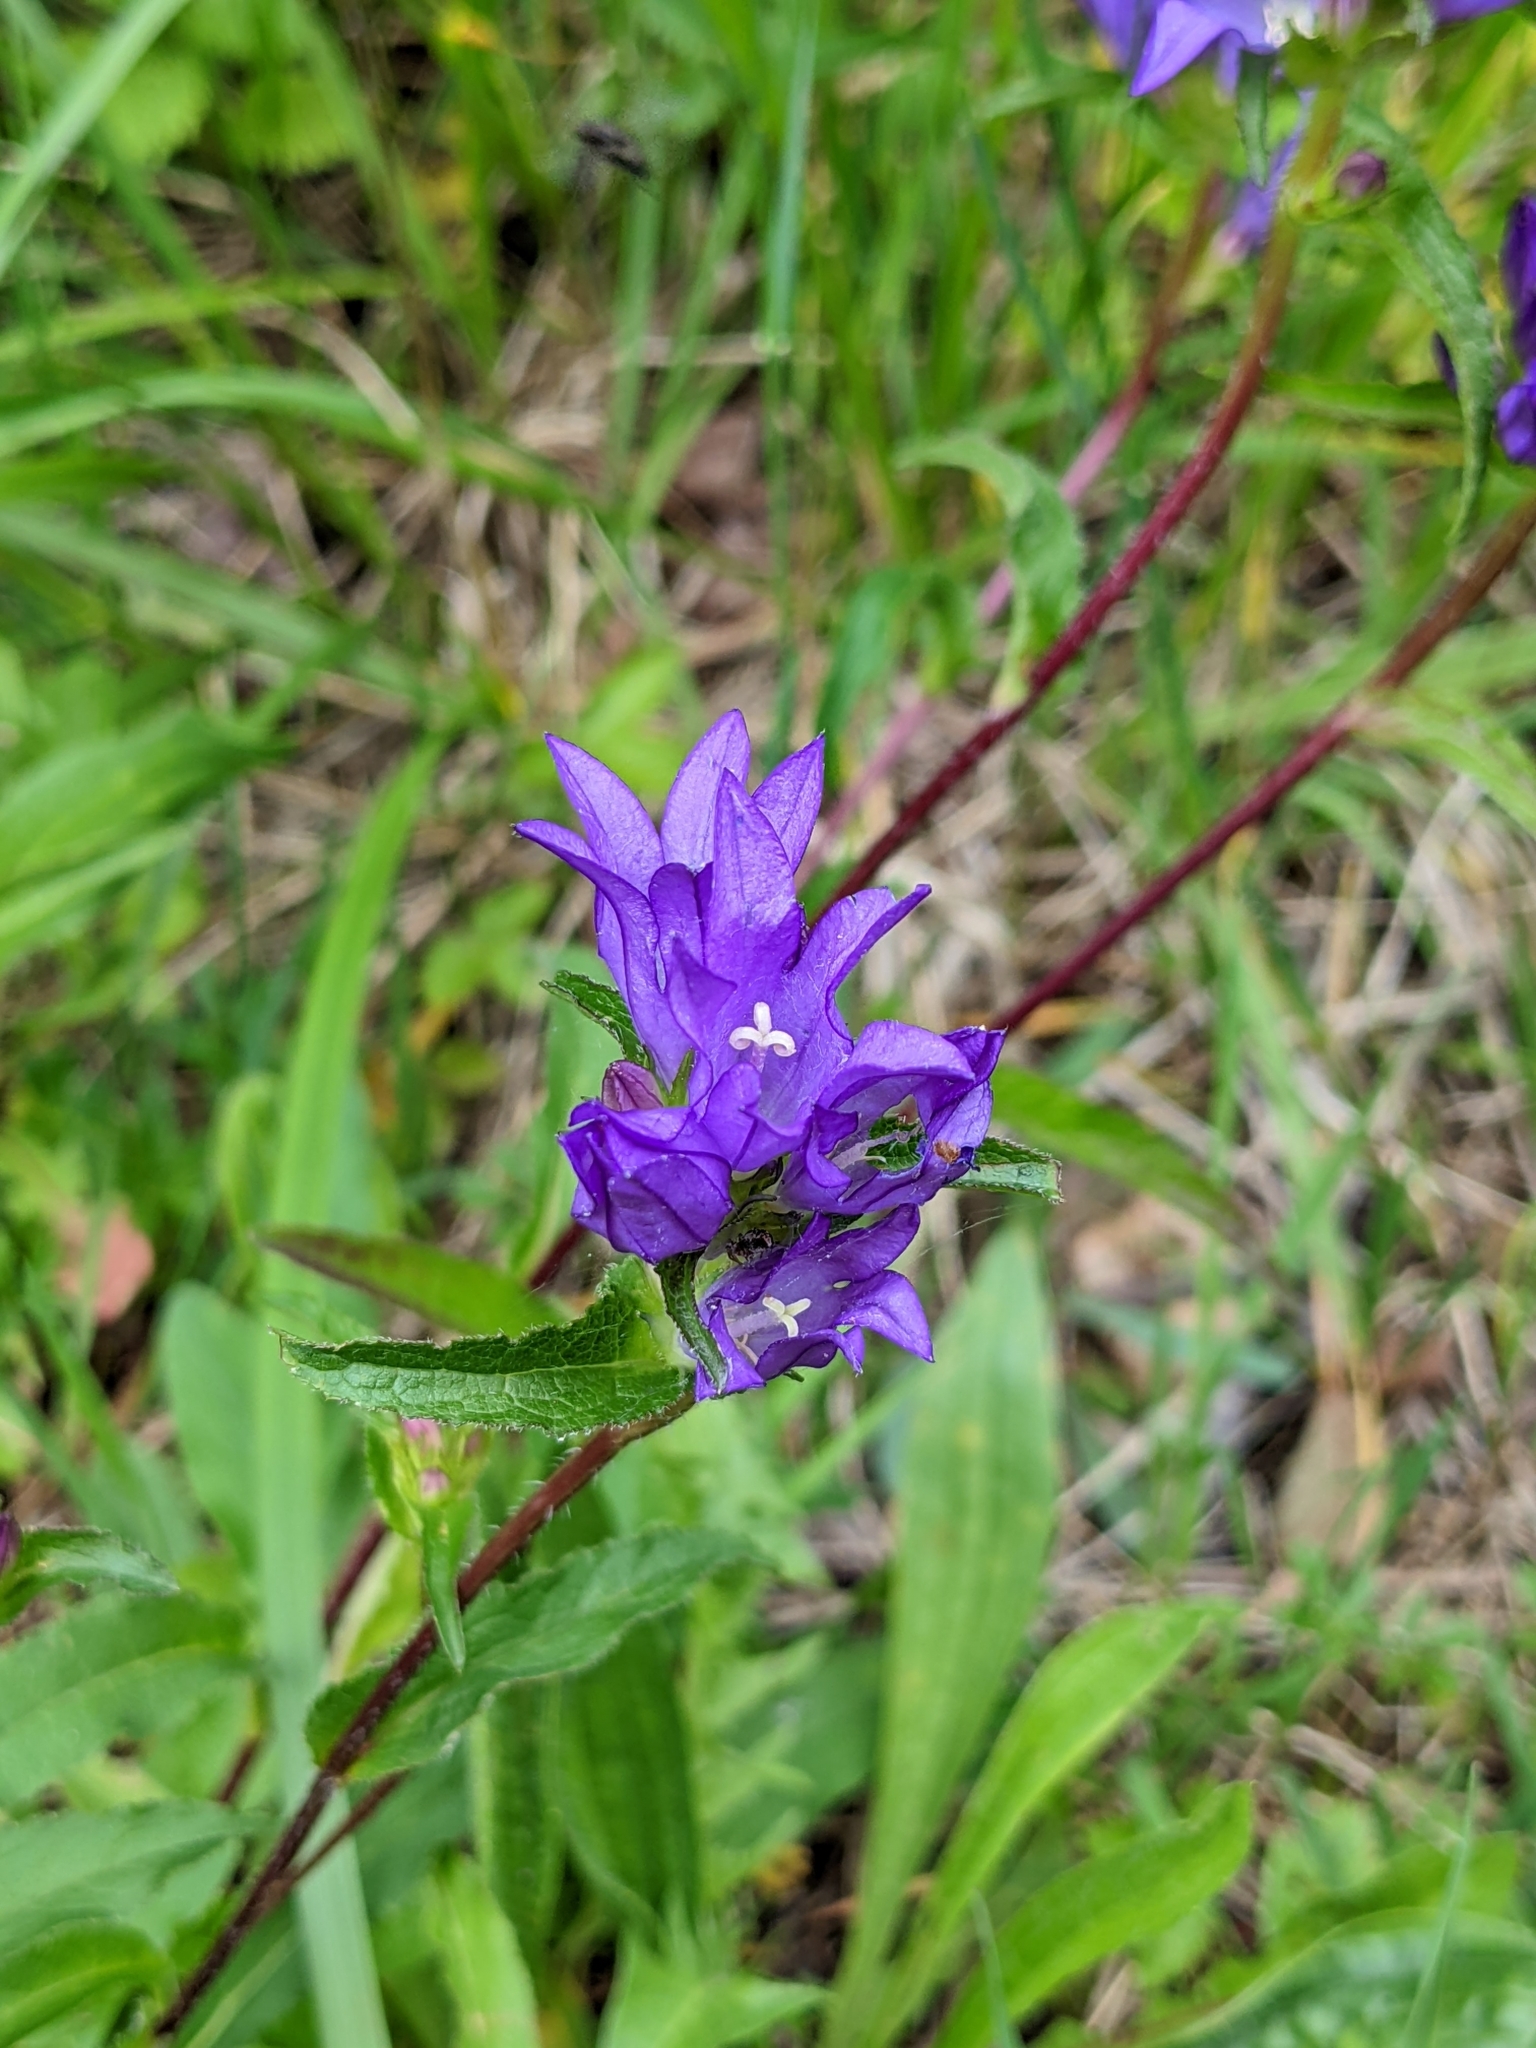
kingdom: Plantae
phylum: Tracheophyta
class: Magnoliopsida
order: Asterales
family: Campanulaceae
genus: Campanula
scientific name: Campanula glomerata
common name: Clustered bellflower
